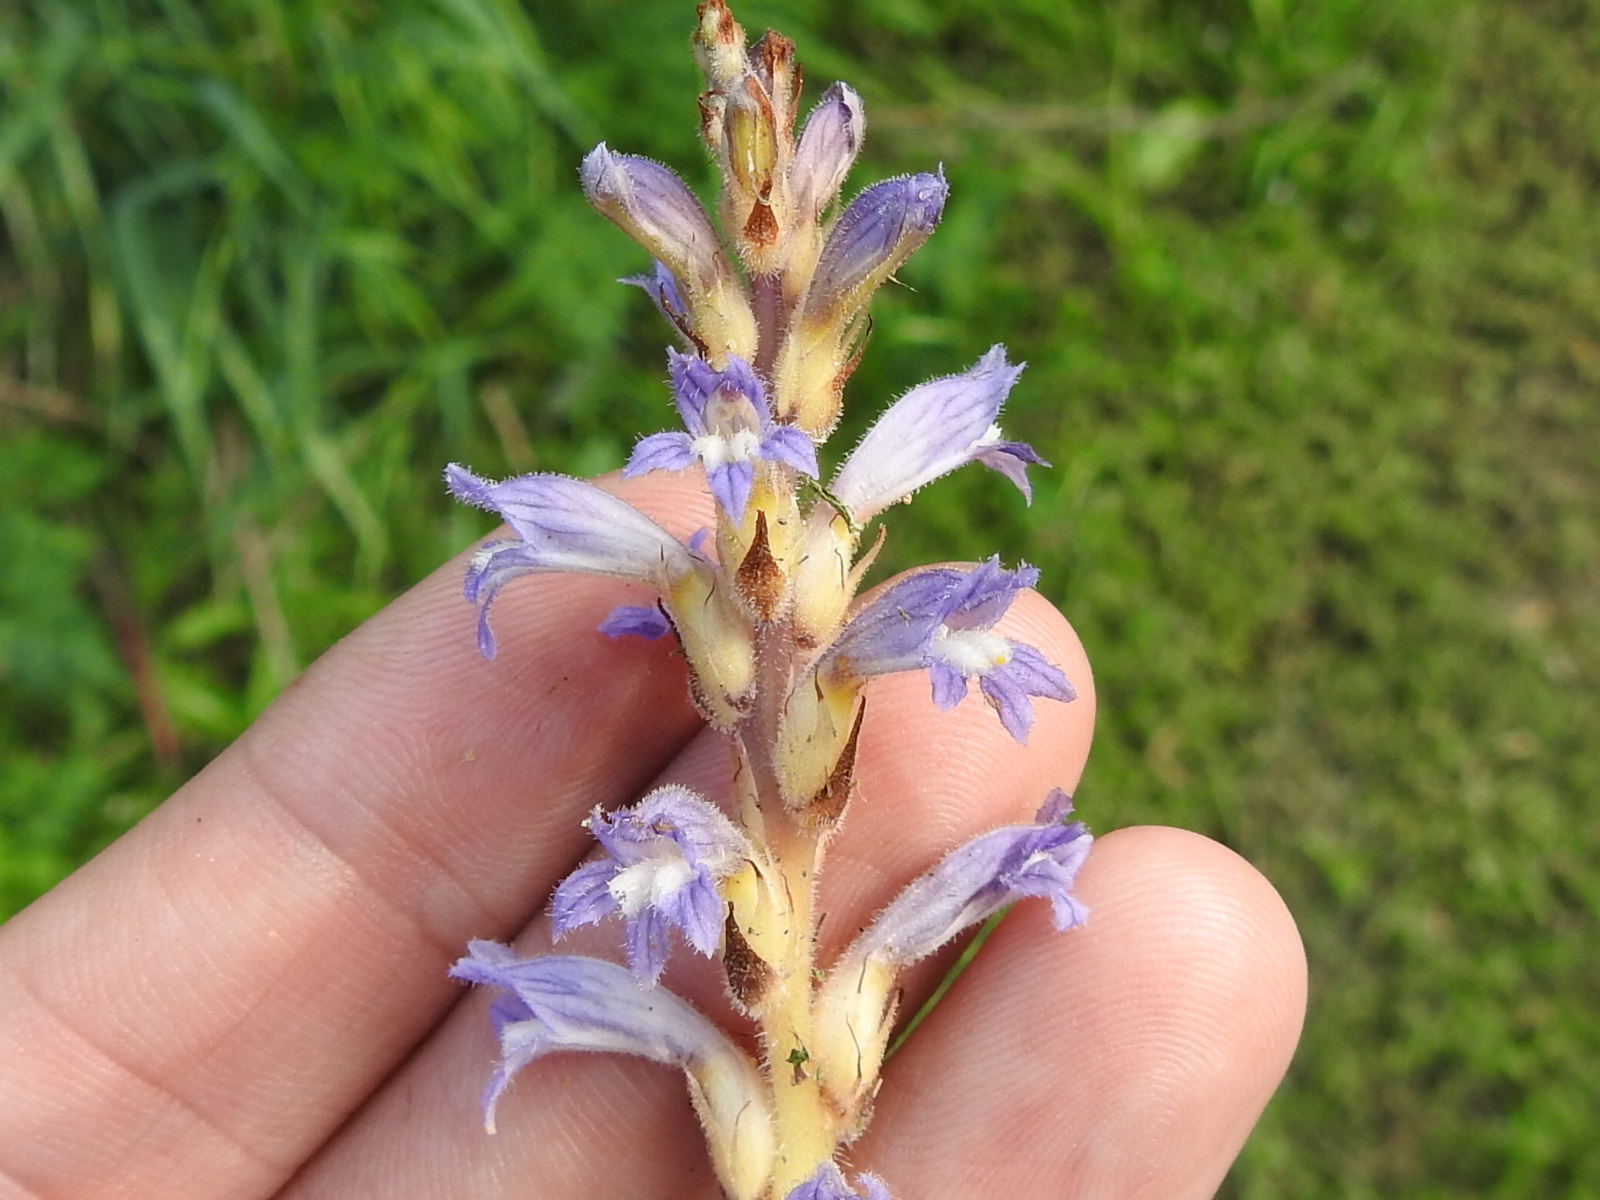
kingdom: Plantae
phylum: Tracheophyta
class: Magnoliopsida
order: Lamiales
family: Orobanchaceae
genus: Phelipanche
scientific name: Phelipanche ramosa
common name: Branched broomrape
